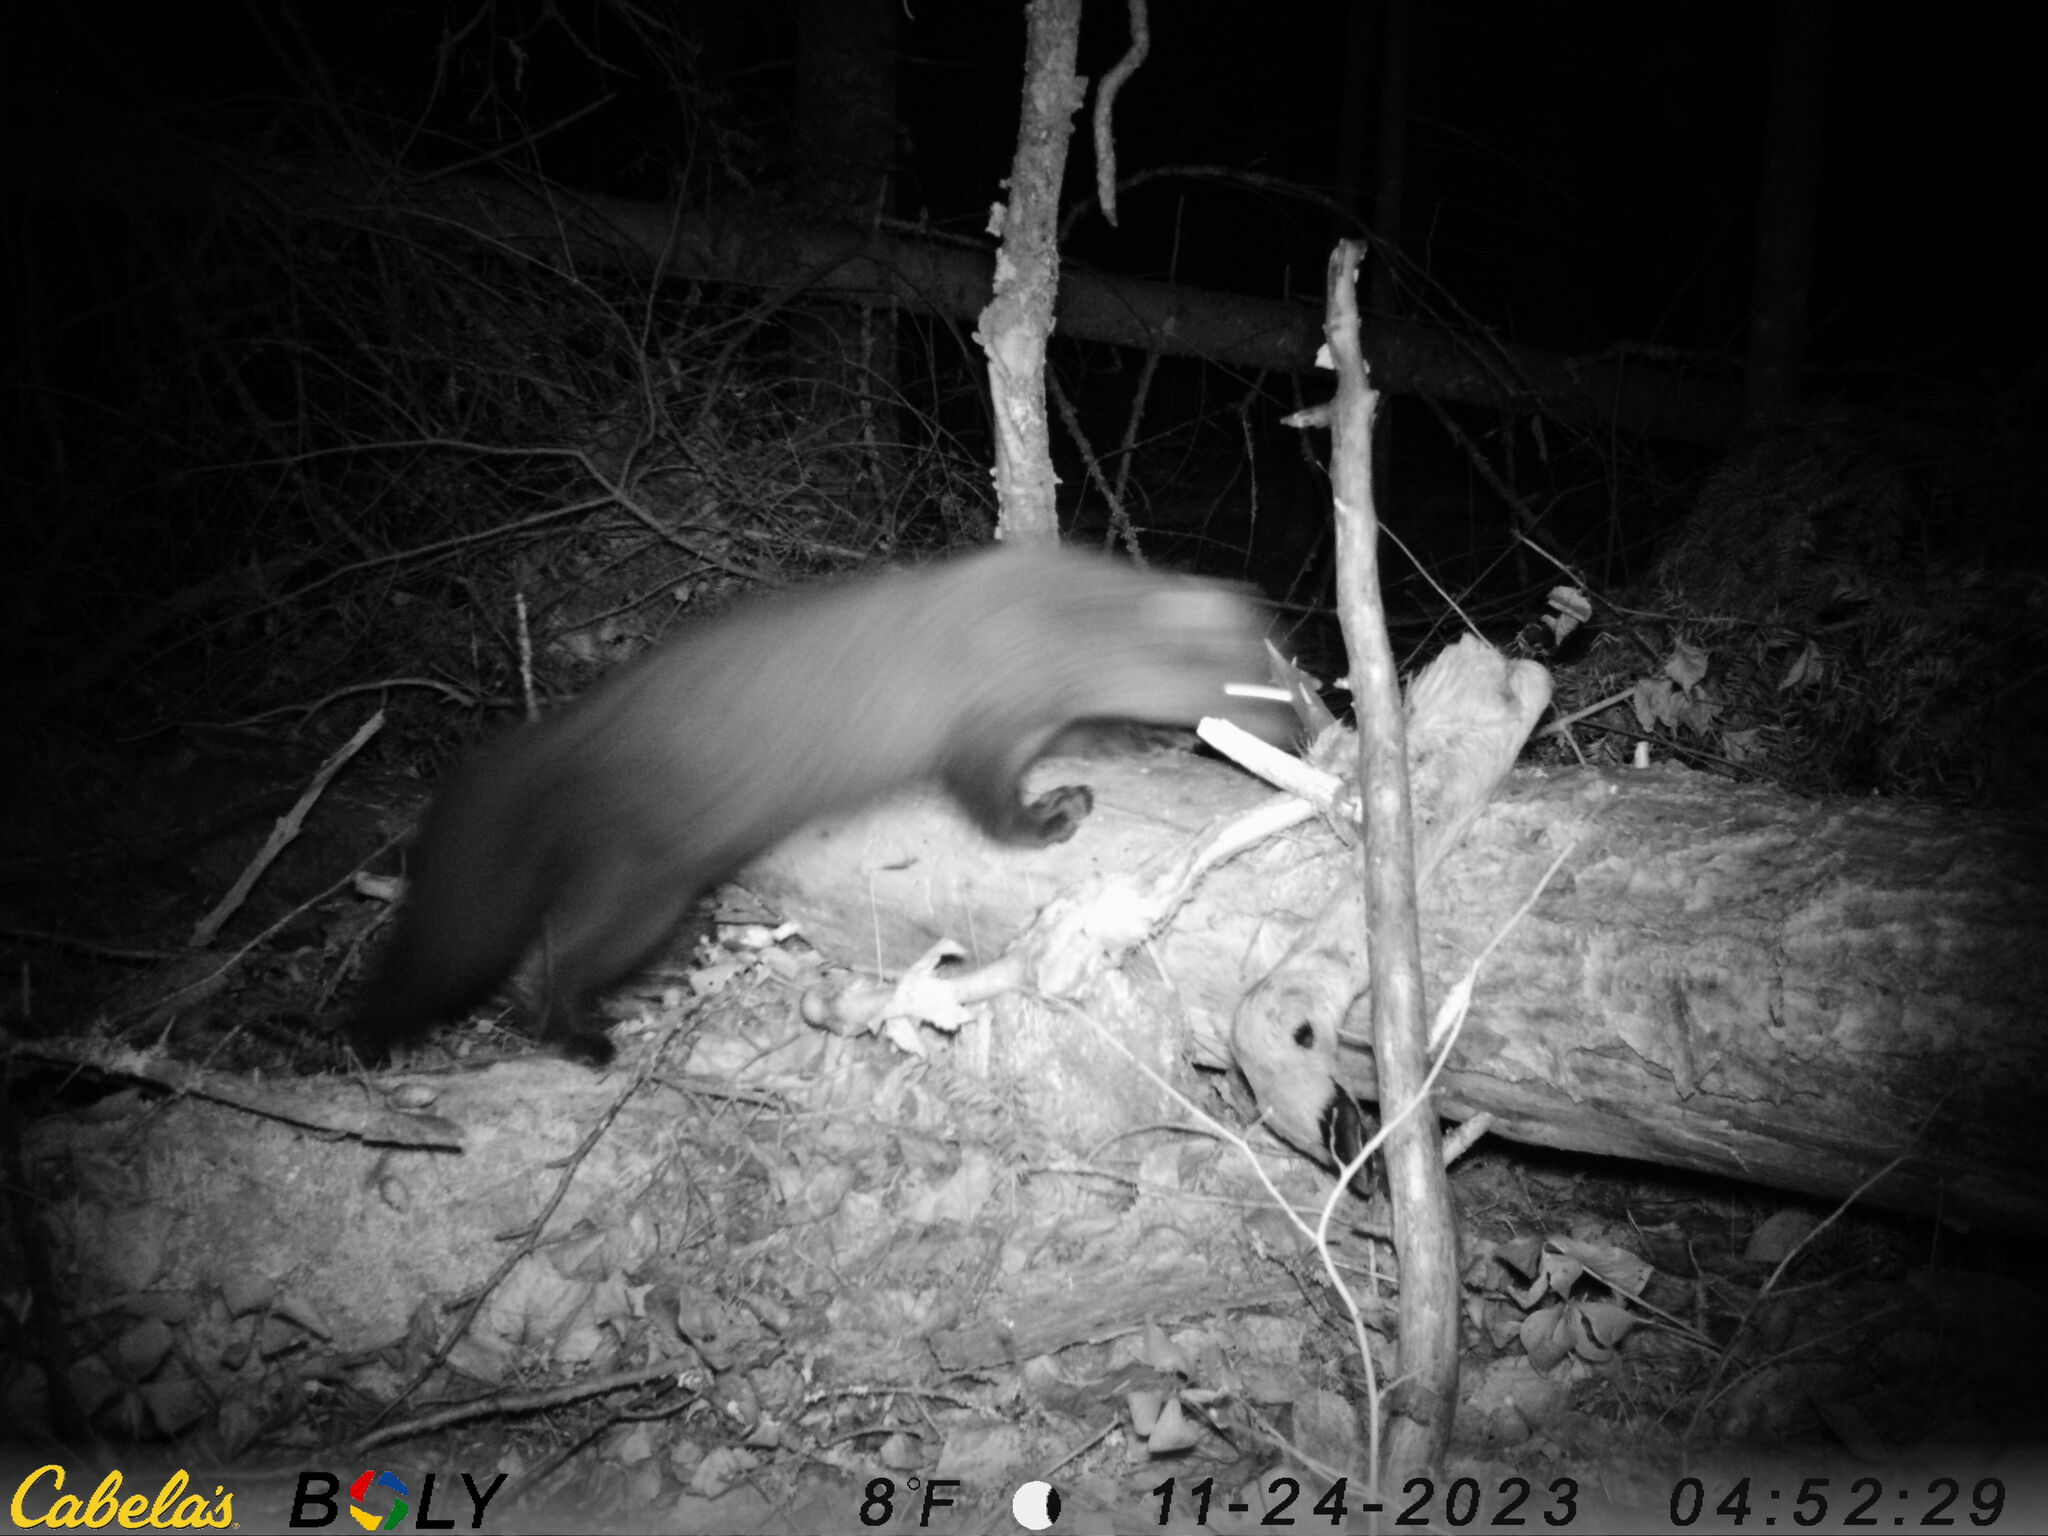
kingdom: Animalia
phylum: Chordata
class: Mammalia
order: Carnivora
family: Mustelidae
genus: Pekania
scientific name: Pekania pennanti
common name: Fisher
